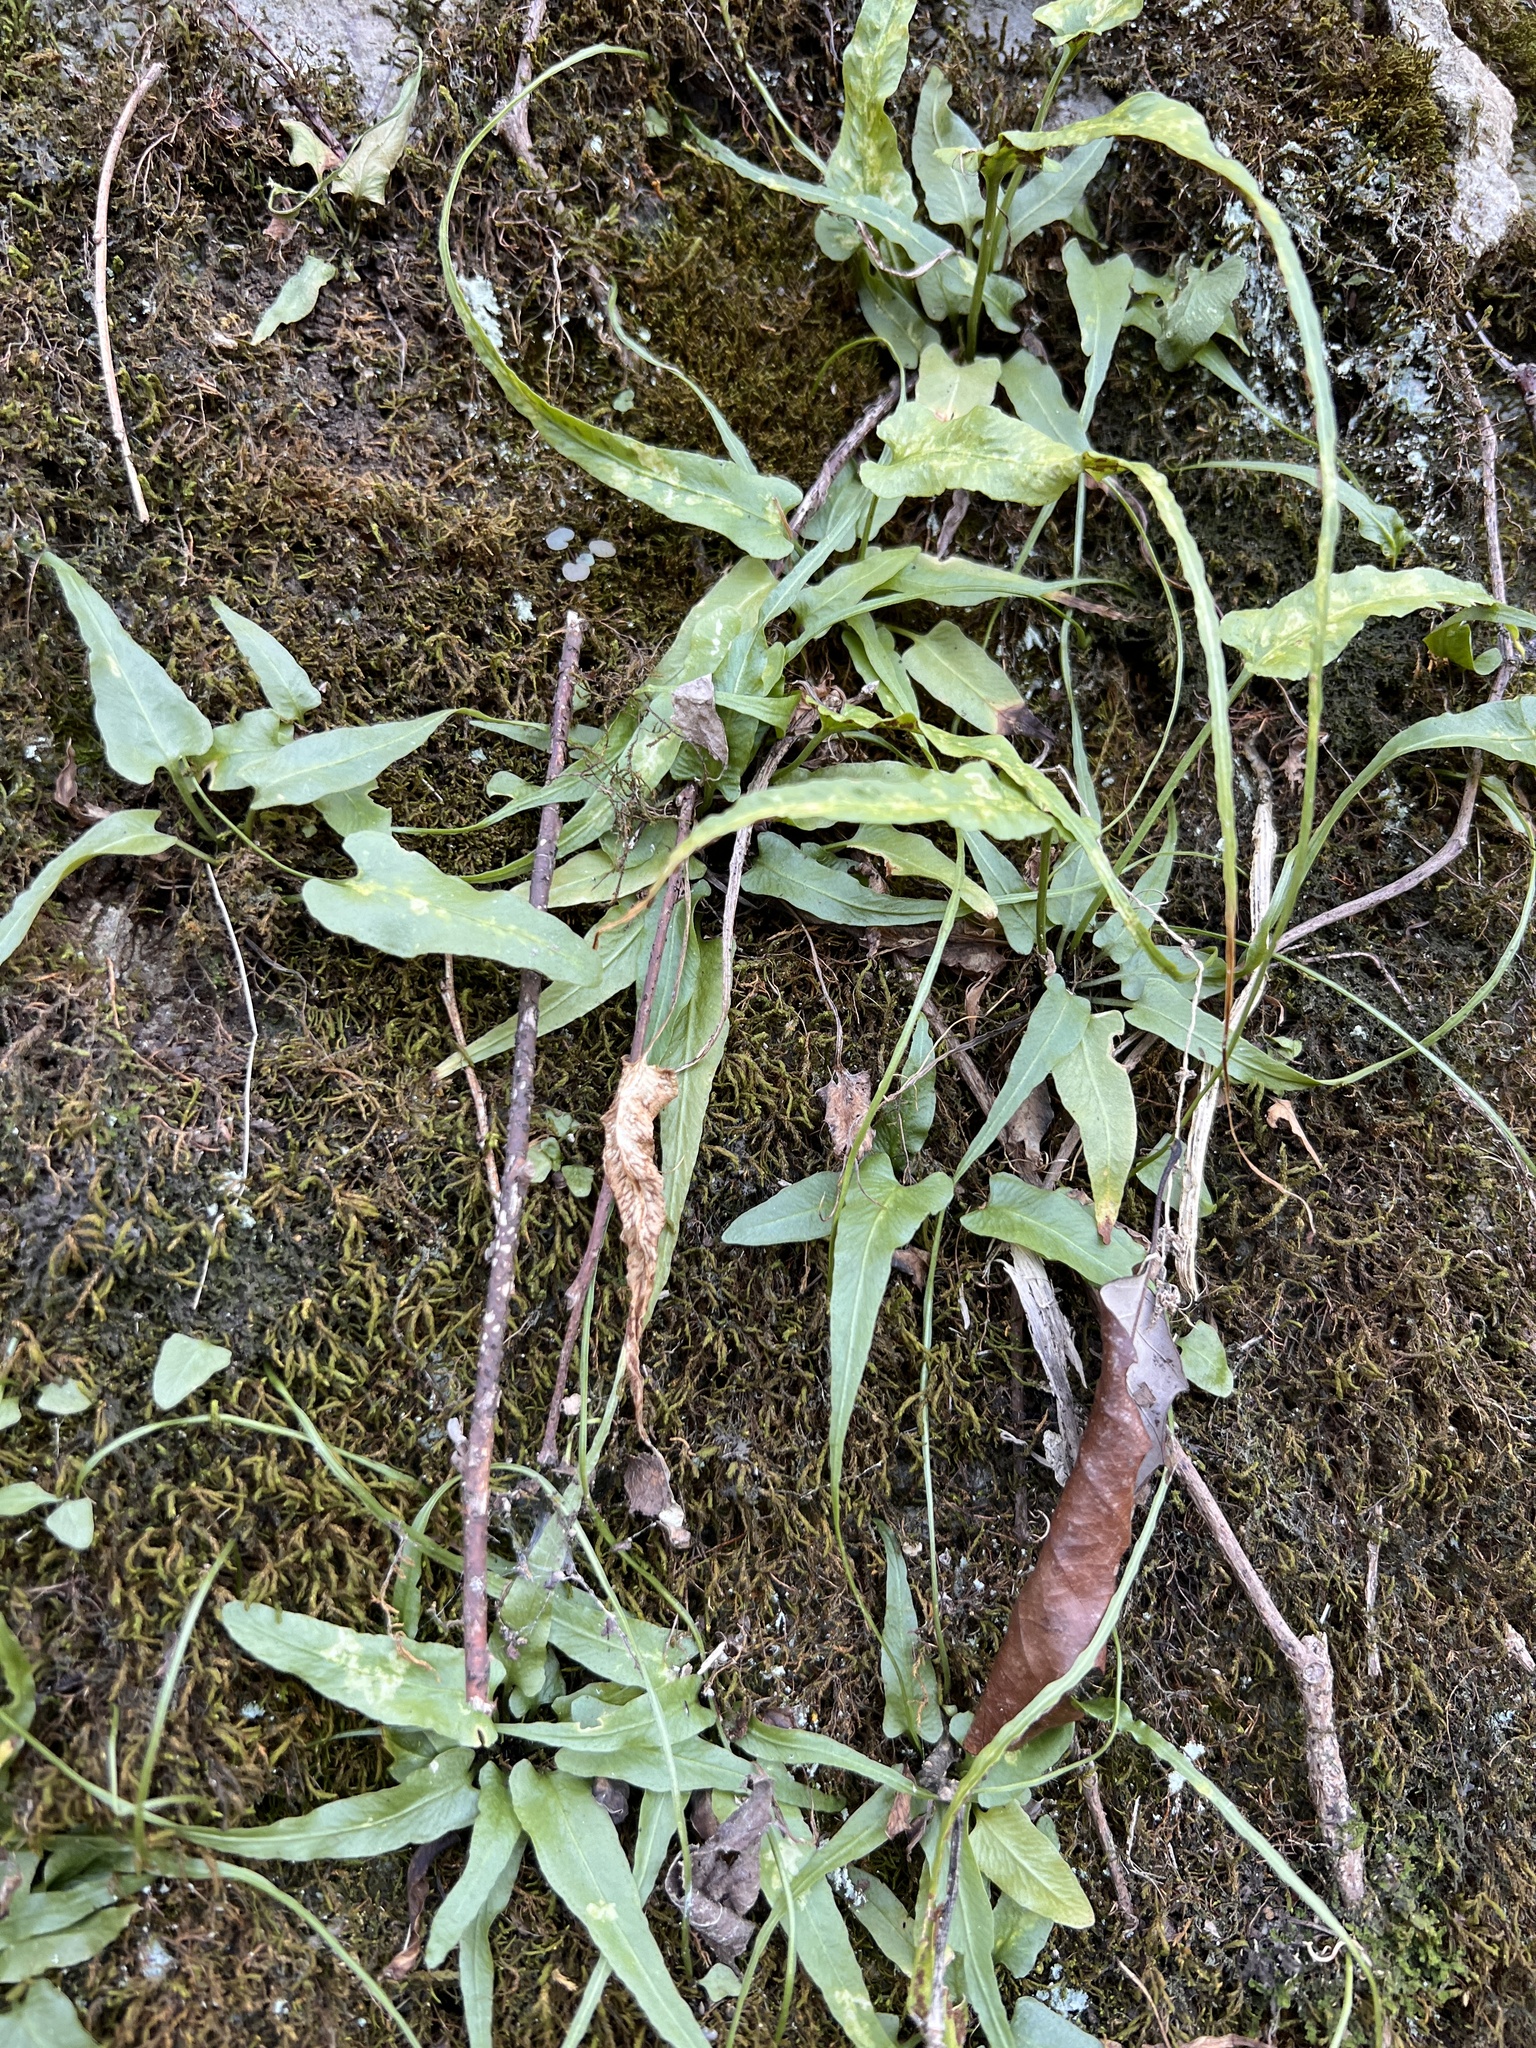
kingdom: Plantae
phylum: Tracheophyta
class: Polypodiopsida
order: Polypodiales
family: Aspleniaceae
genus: Asplenium
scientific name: Asplenium rhizophyllum
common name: Walking fern
